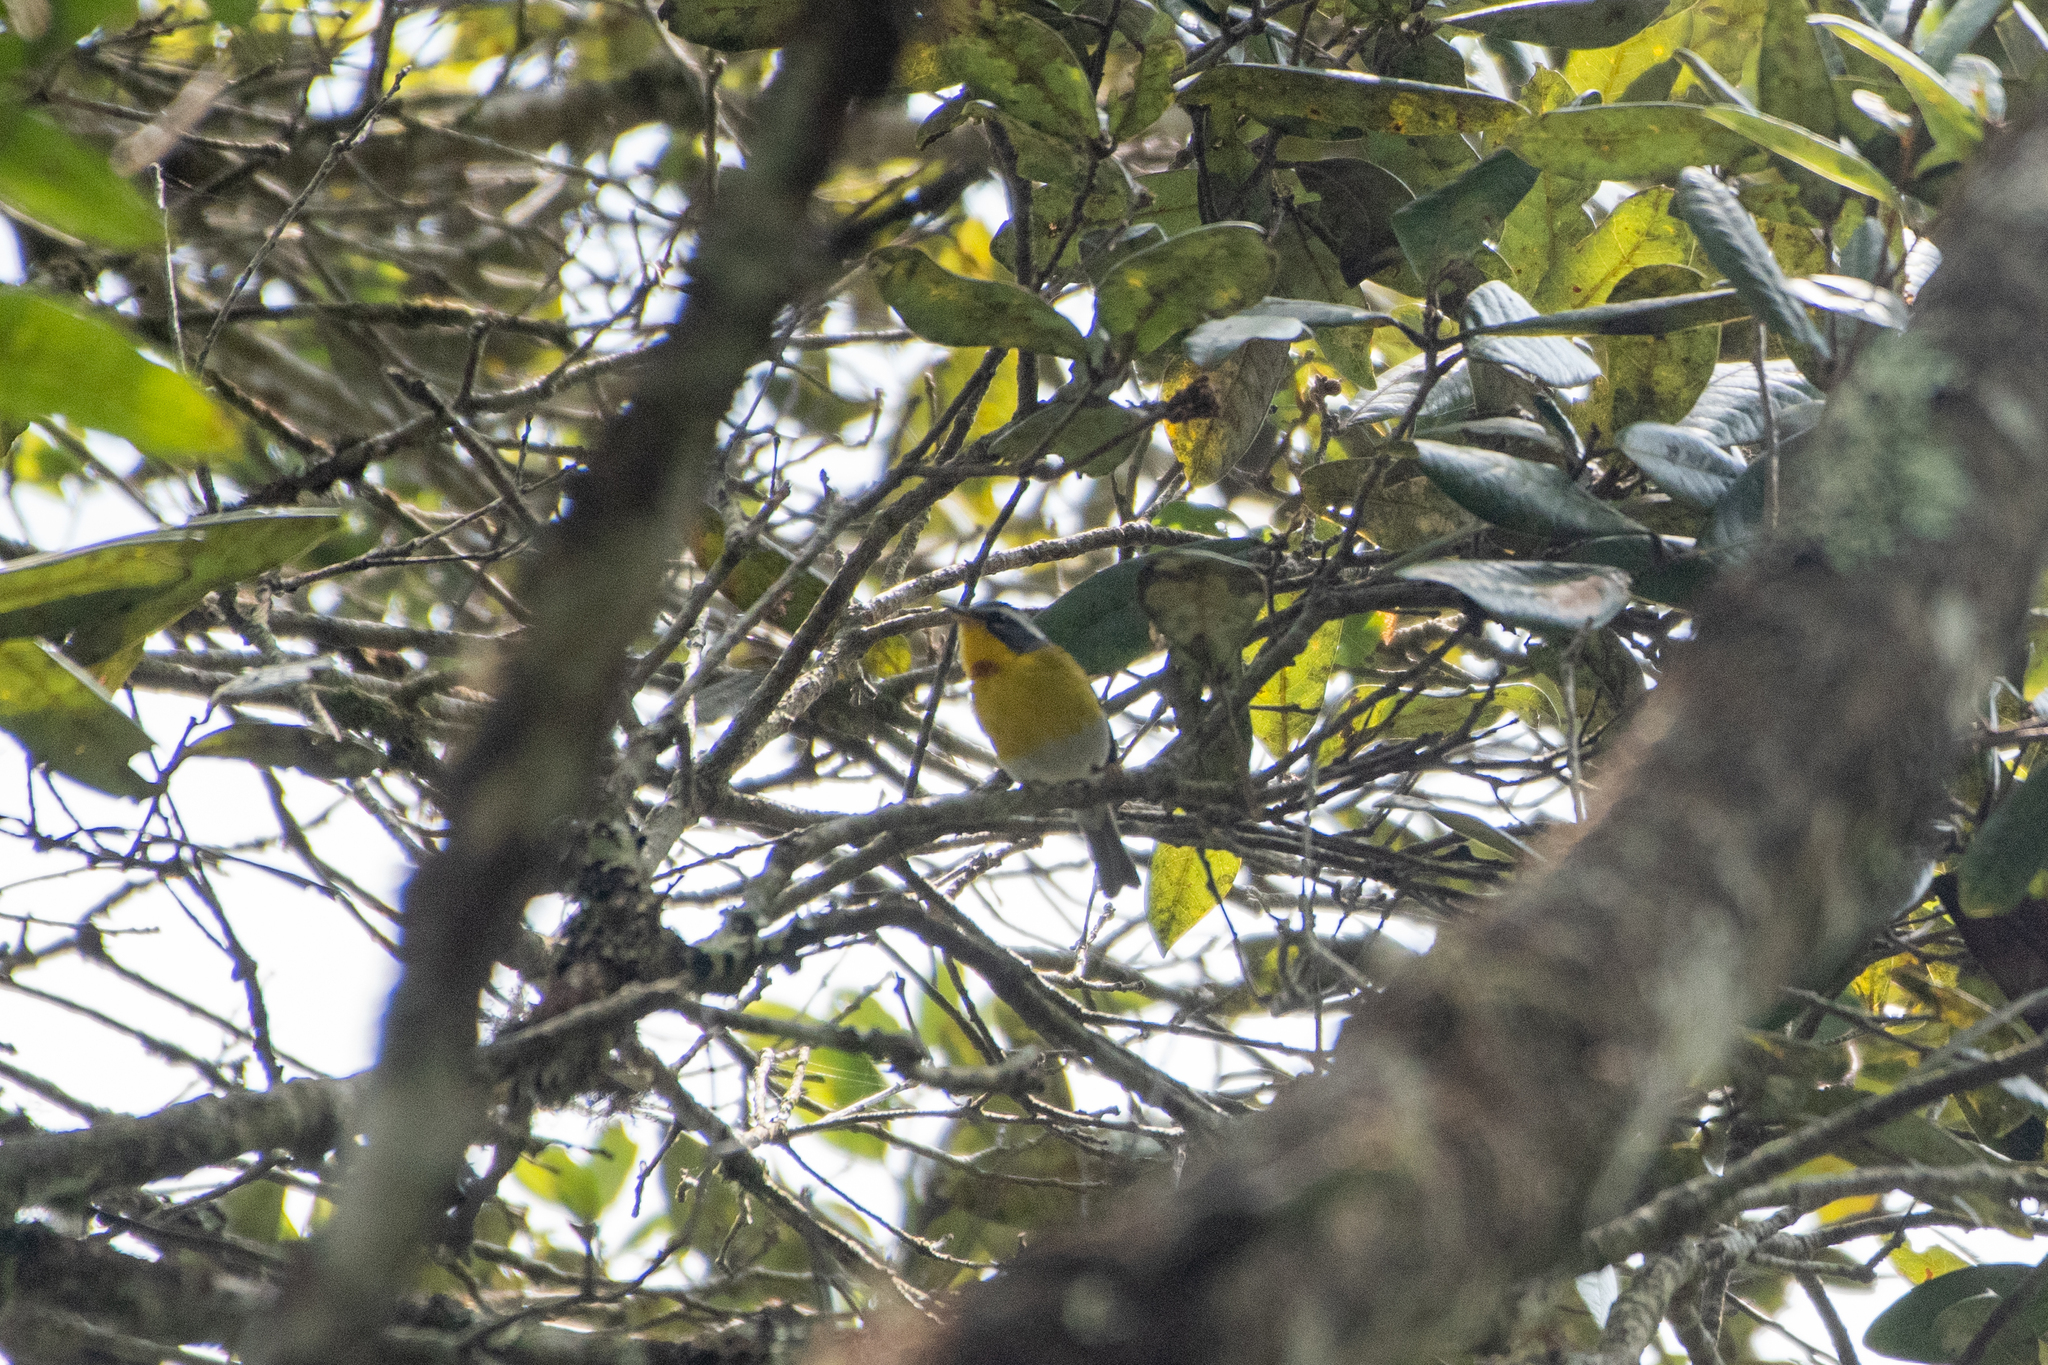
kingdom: Animalia
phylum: Chordata
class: Aves
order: Passeriformes
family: Parulidae
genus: Oreothlypis
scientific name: Oreothlypis superciliosa
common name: Crescent-chested warbler
